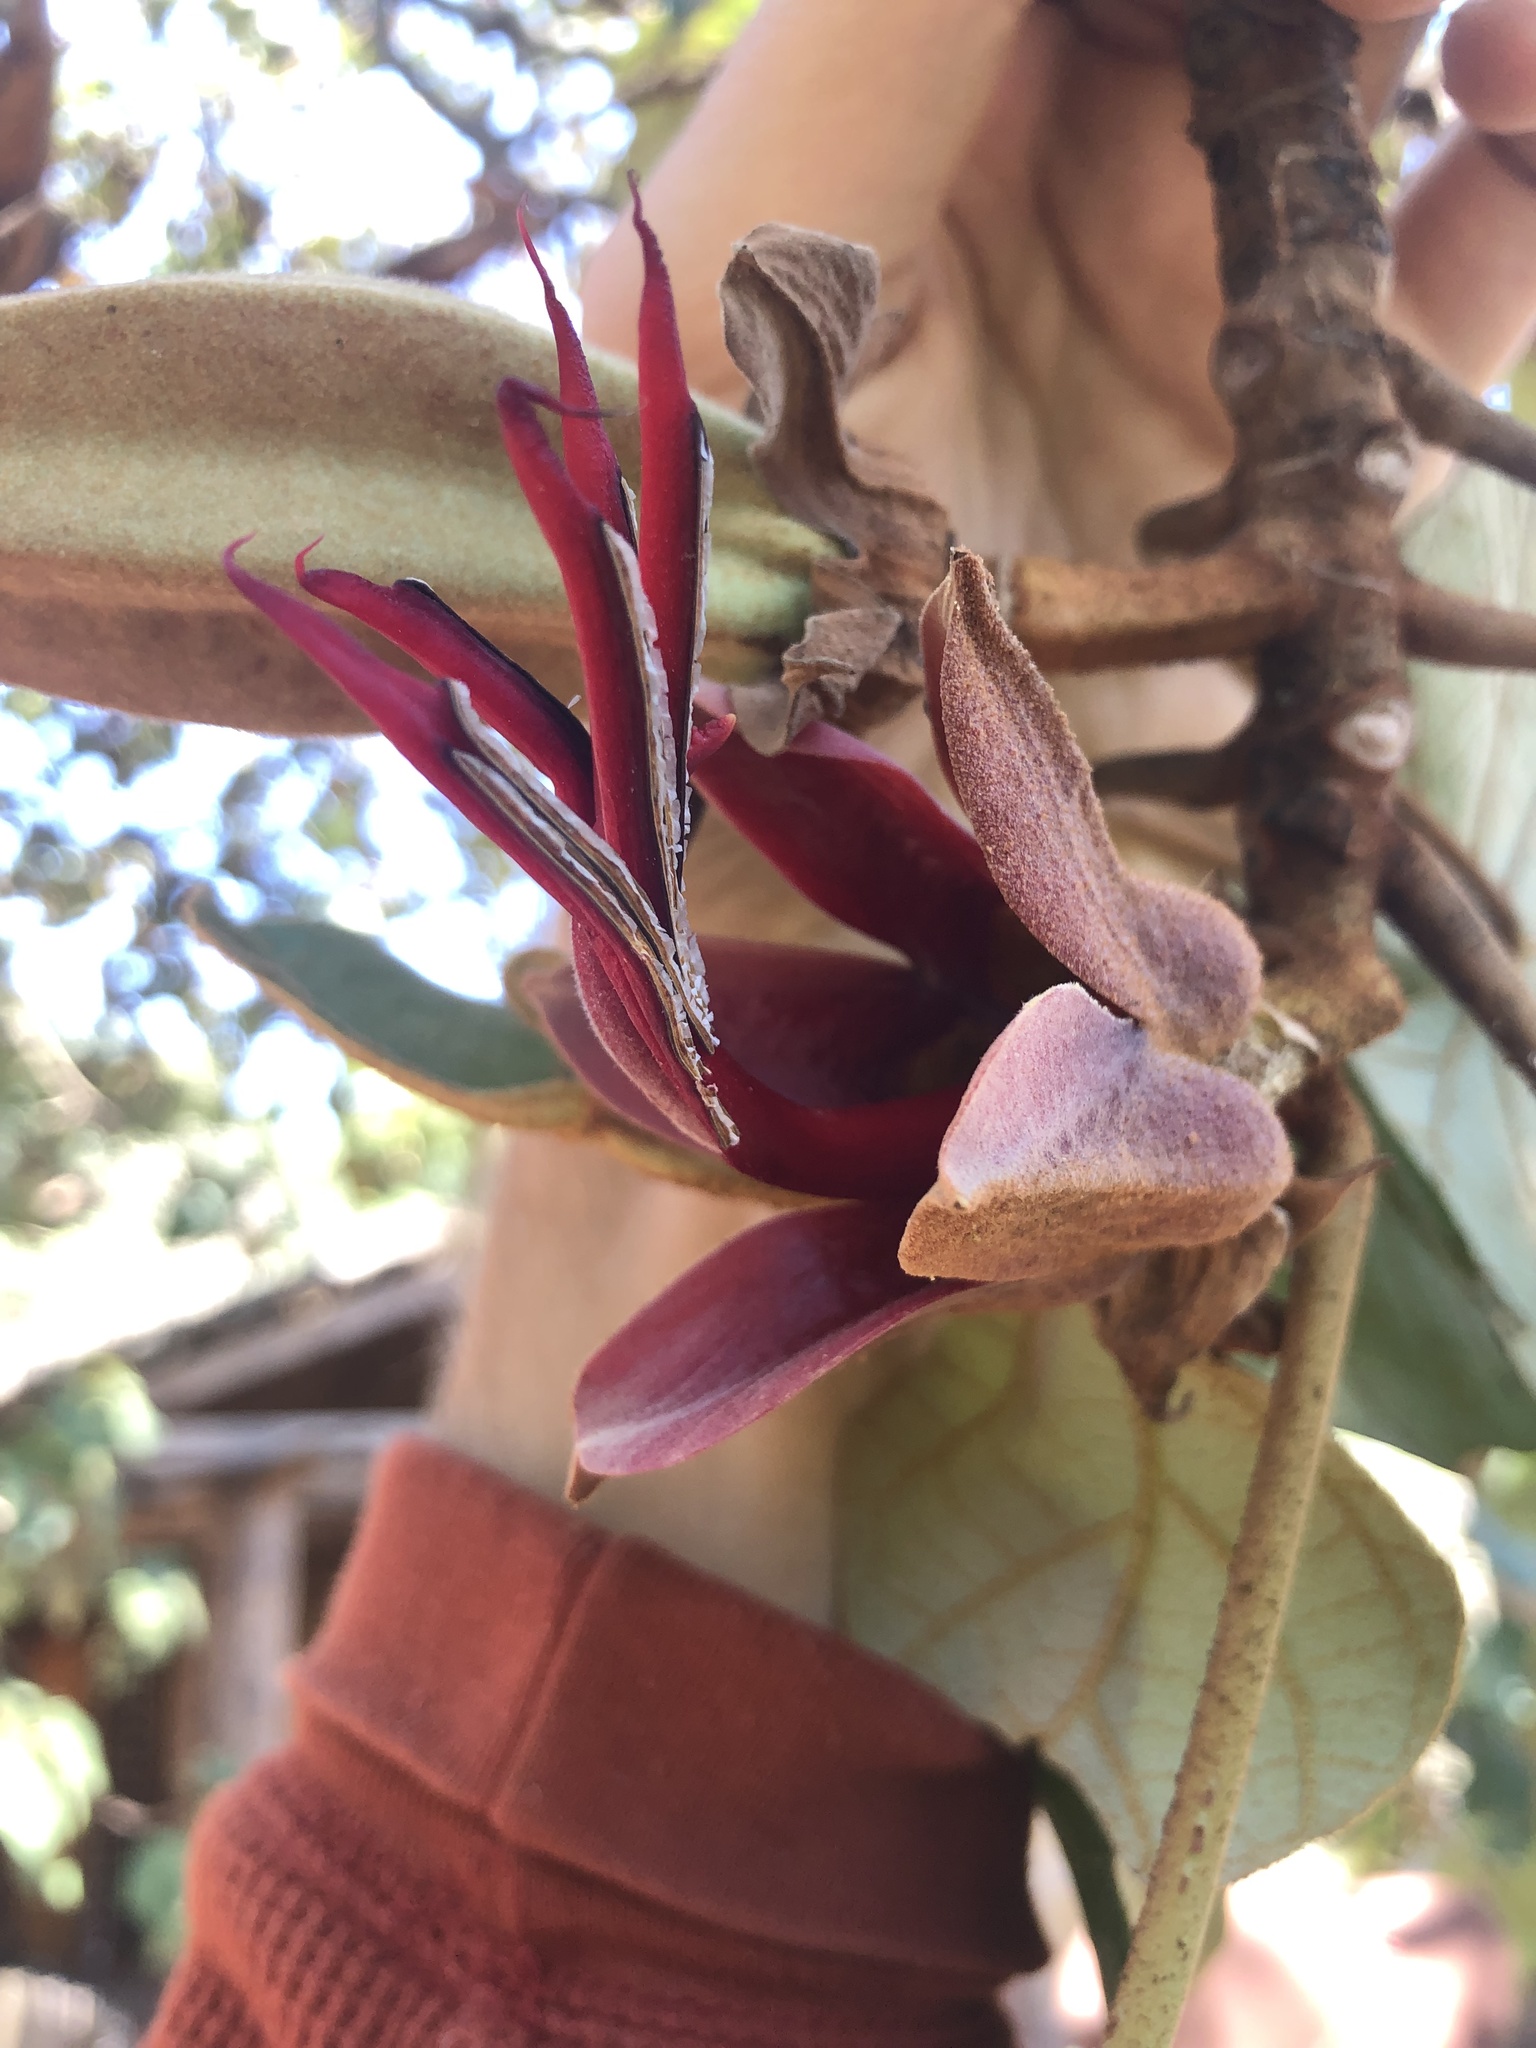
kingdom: Plantae
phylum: Tracheophyta
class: Magnoliopsida
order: Malvales
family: Malvaceae
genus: Chiranthodendron
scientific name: Chiranthodendron pentadactylon
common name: Mexican-hat-plant
